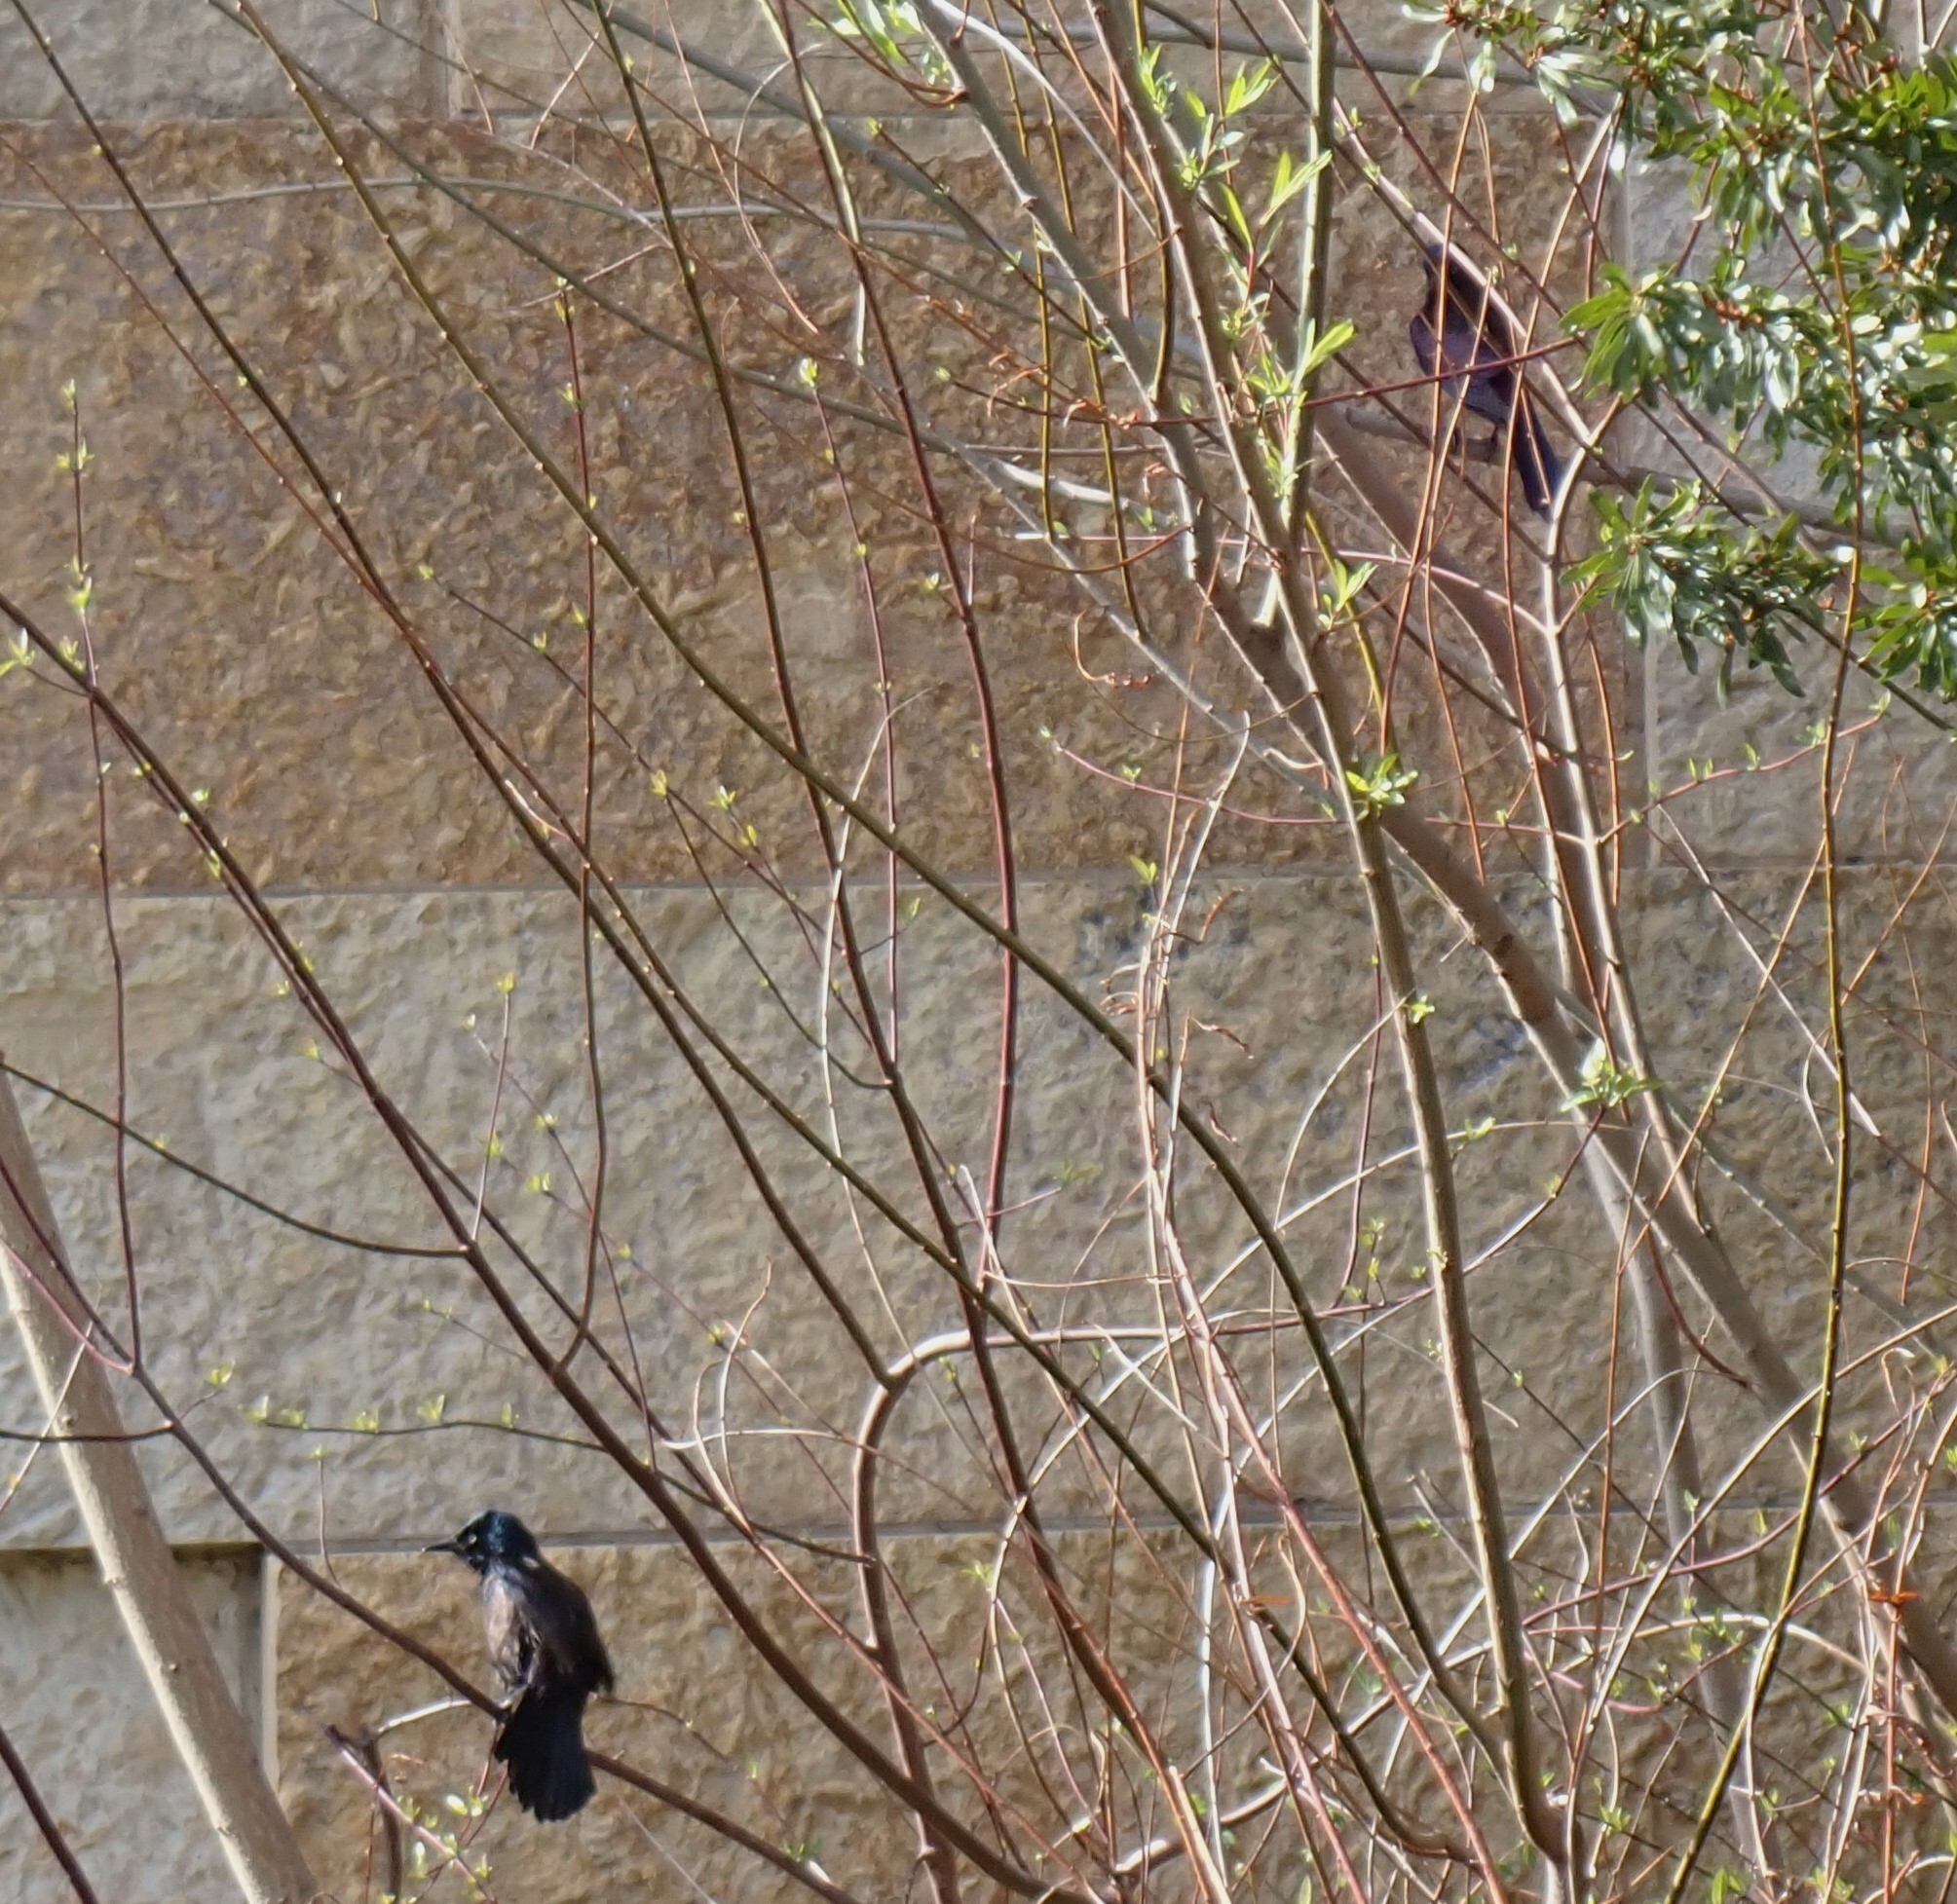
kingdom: Animalia
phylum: Chordata
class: Aves
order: Passeriformes
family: Icteridae
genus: Quiscalus
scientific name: Quiscalus quiscula
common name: Common grackle
